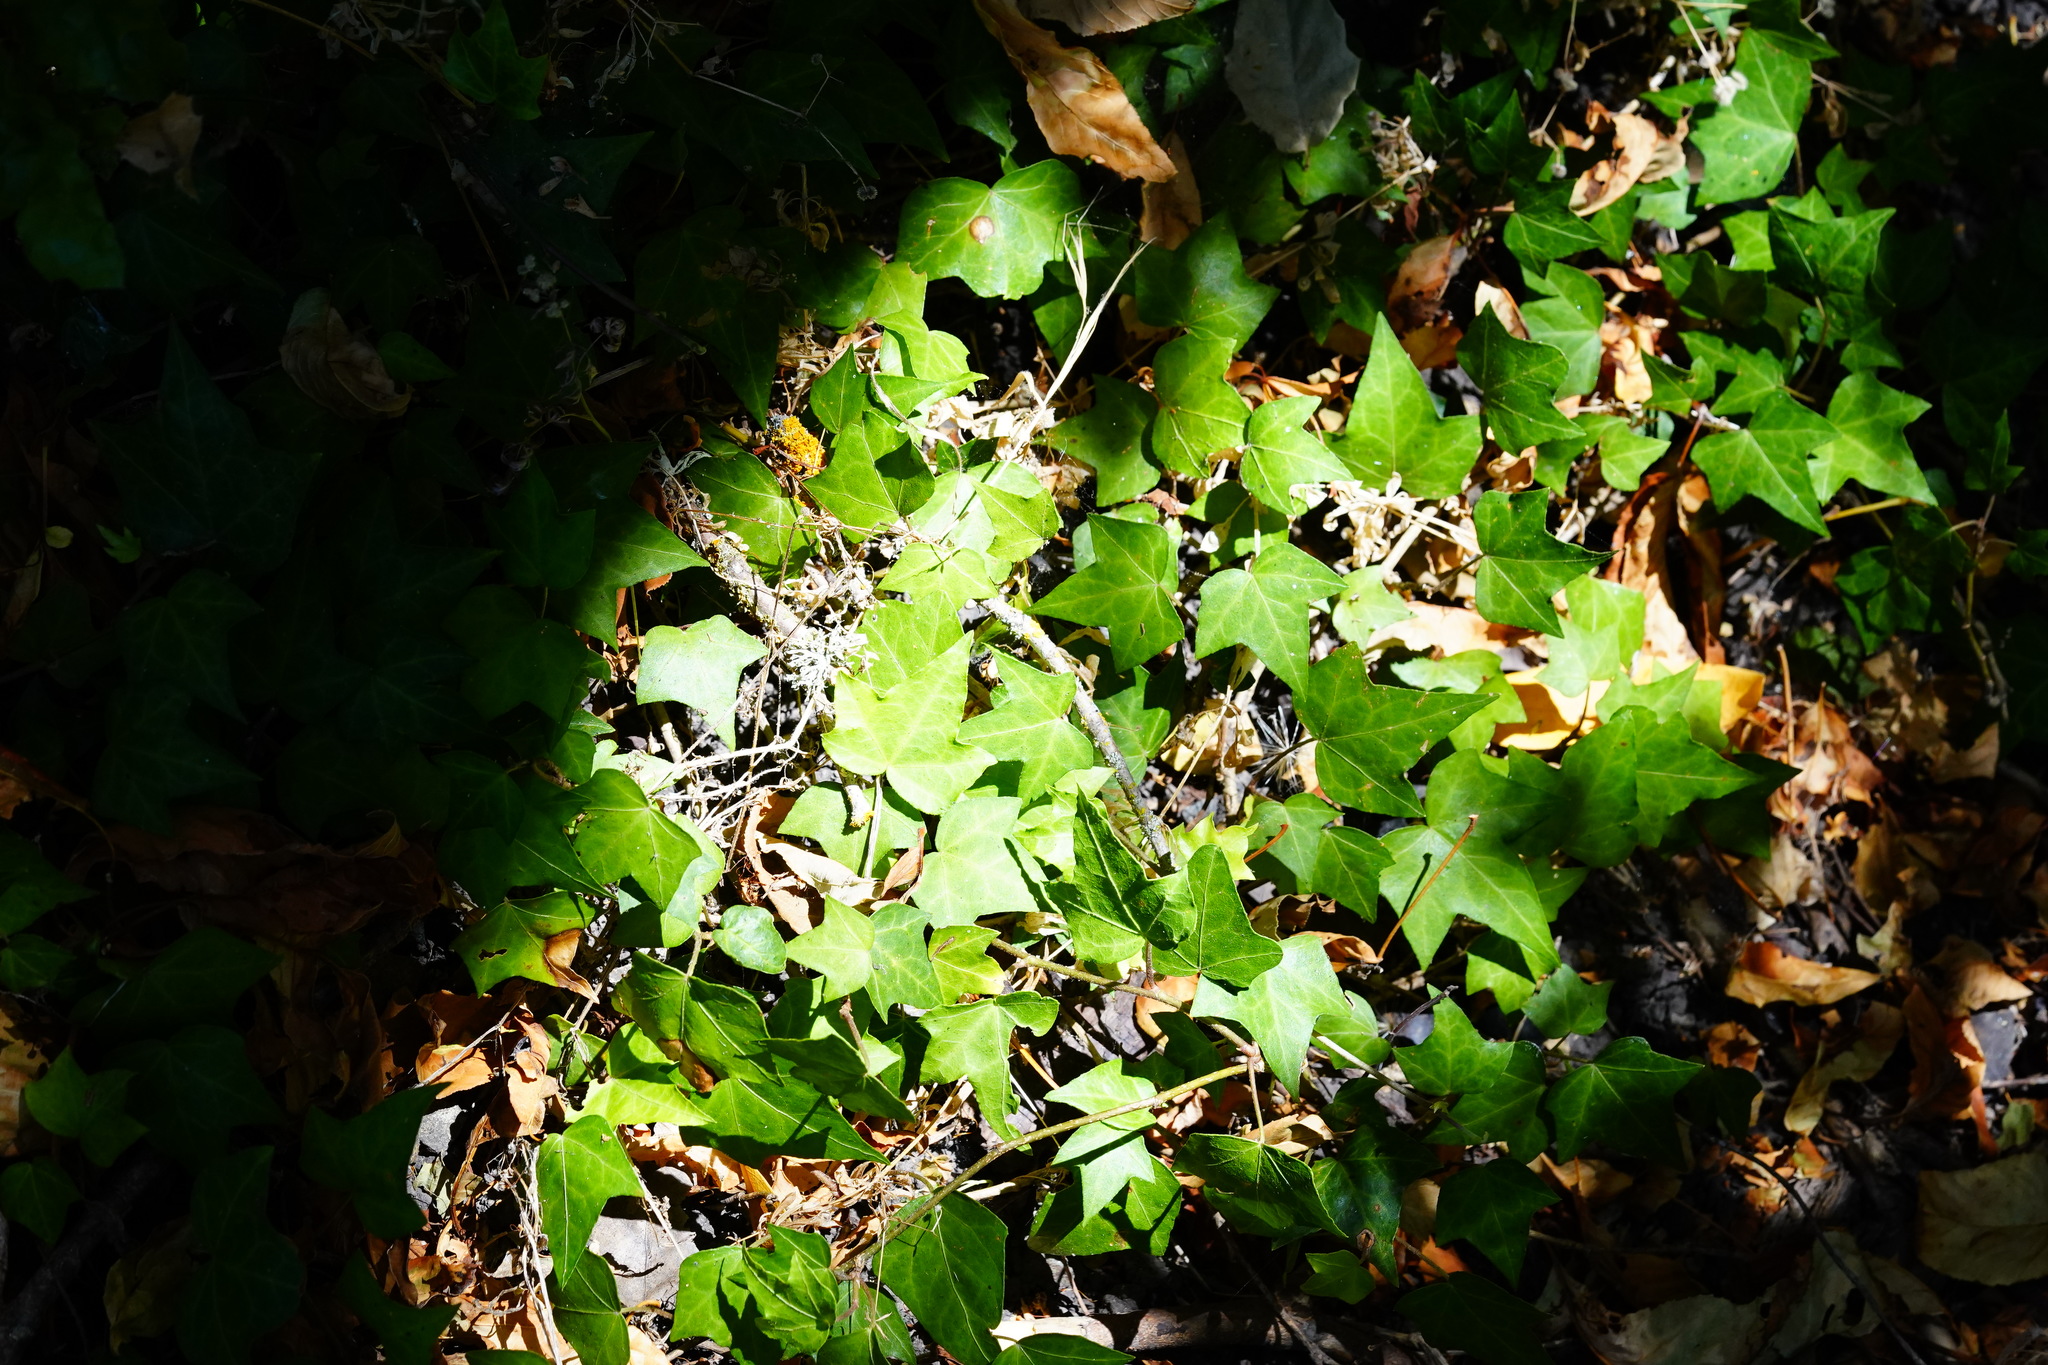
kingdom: Plantae
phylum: Tracheophyta
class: Magnoliopsida
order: Apiales
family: Araliaceae
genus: Hedera
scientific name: Hedera helix
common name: Ivy
